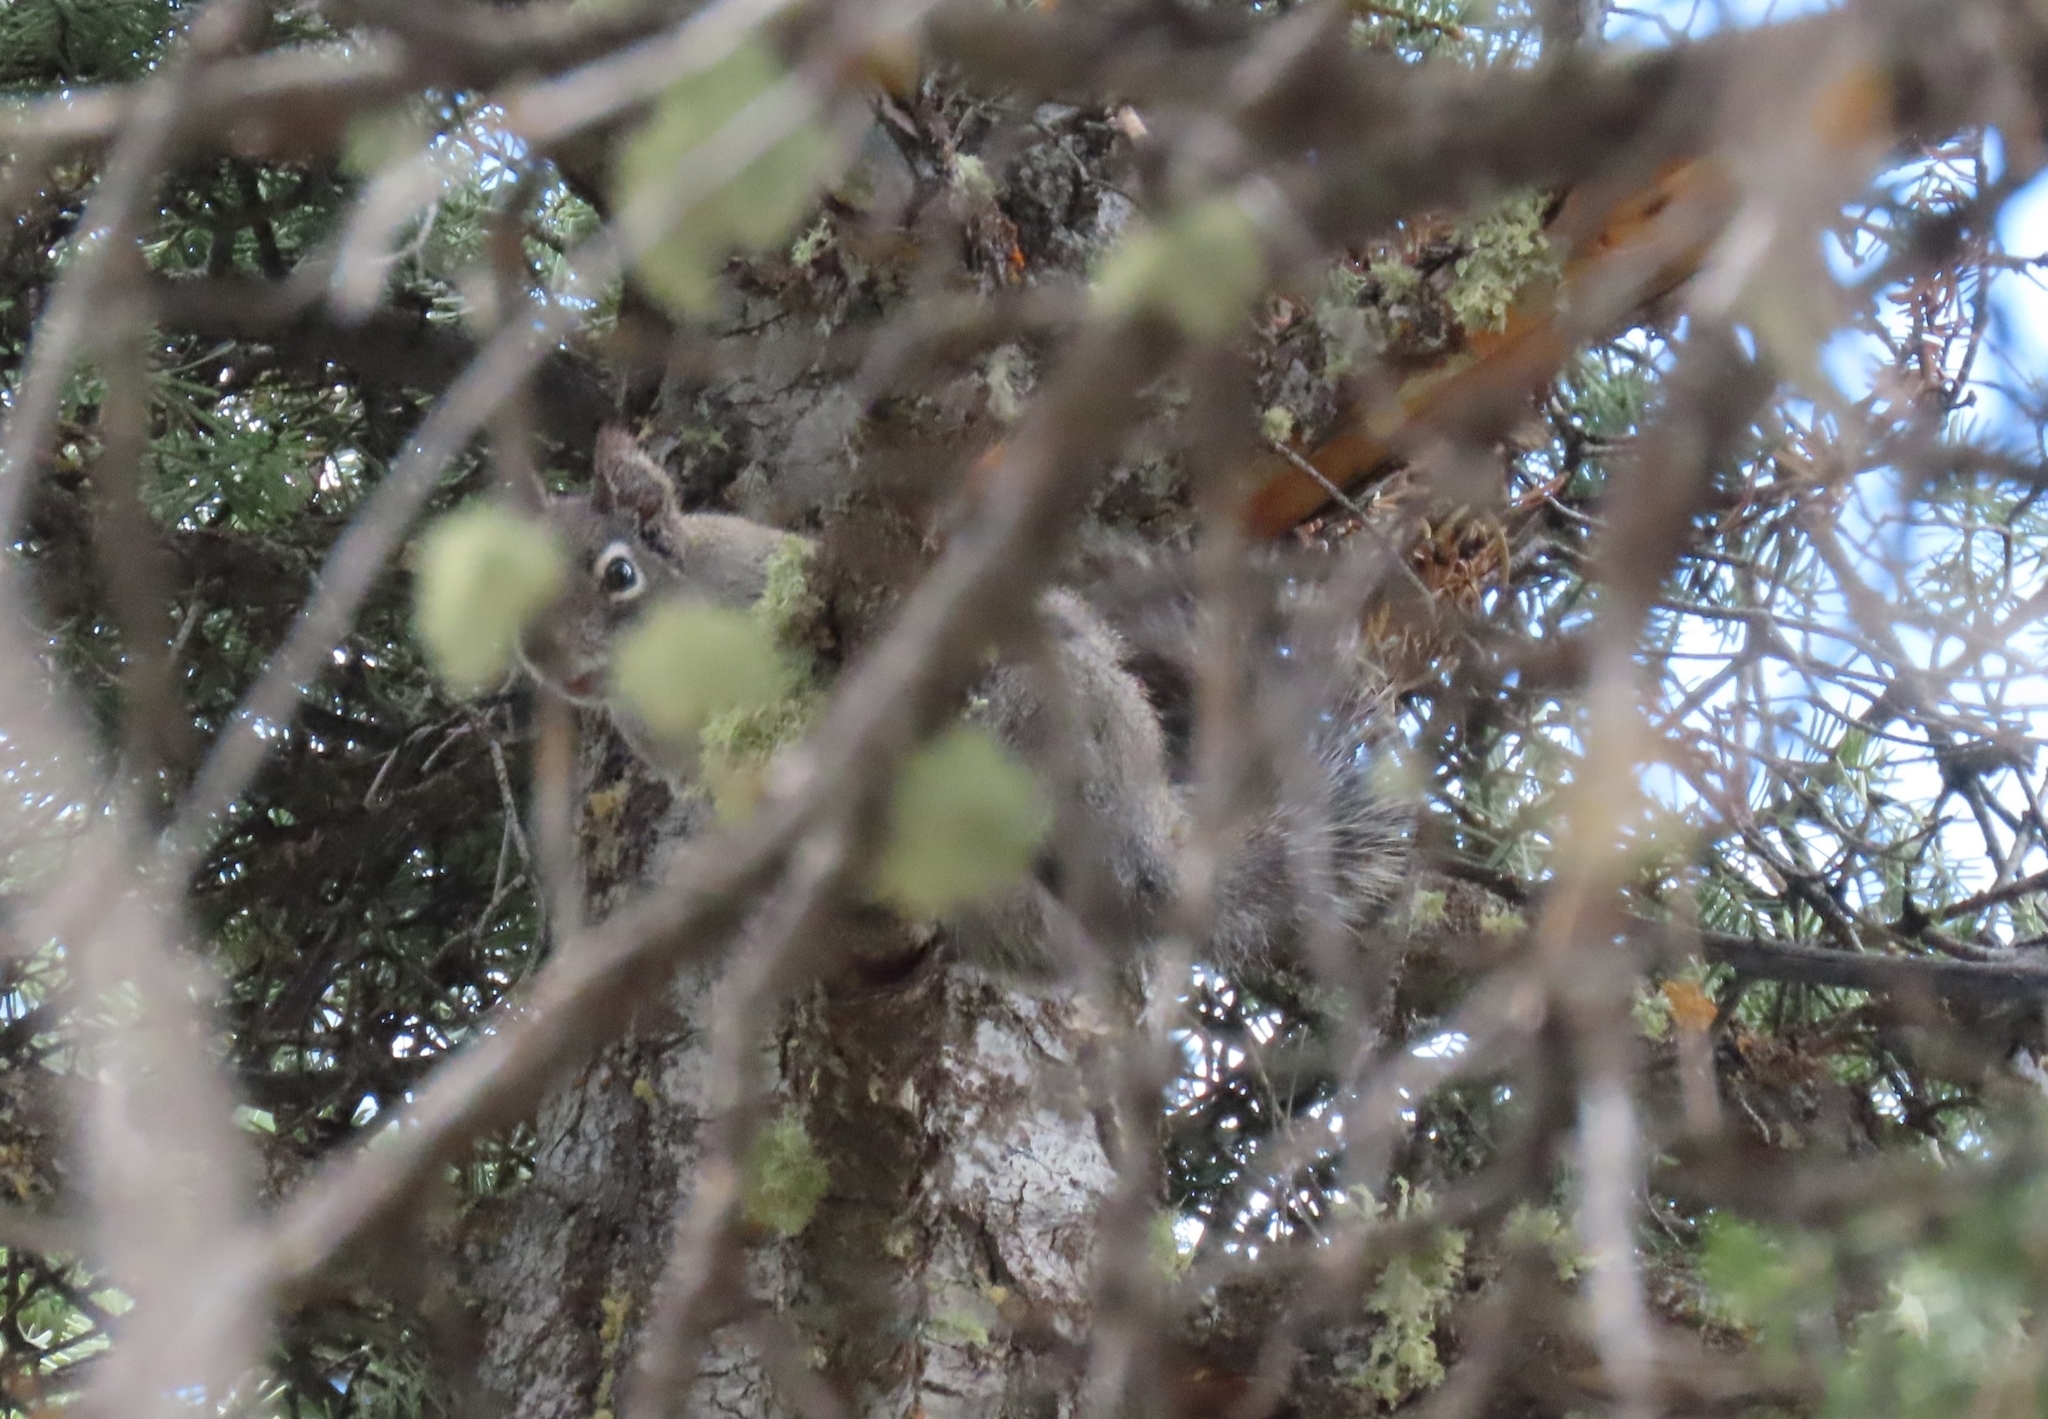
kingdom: Animalia
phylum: Chordata
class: Mammalia
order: Rodentia
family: Sciuridae
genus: Tamiasciurus
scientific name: Tamiasciurus hudsonicus
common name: Red squirrel
